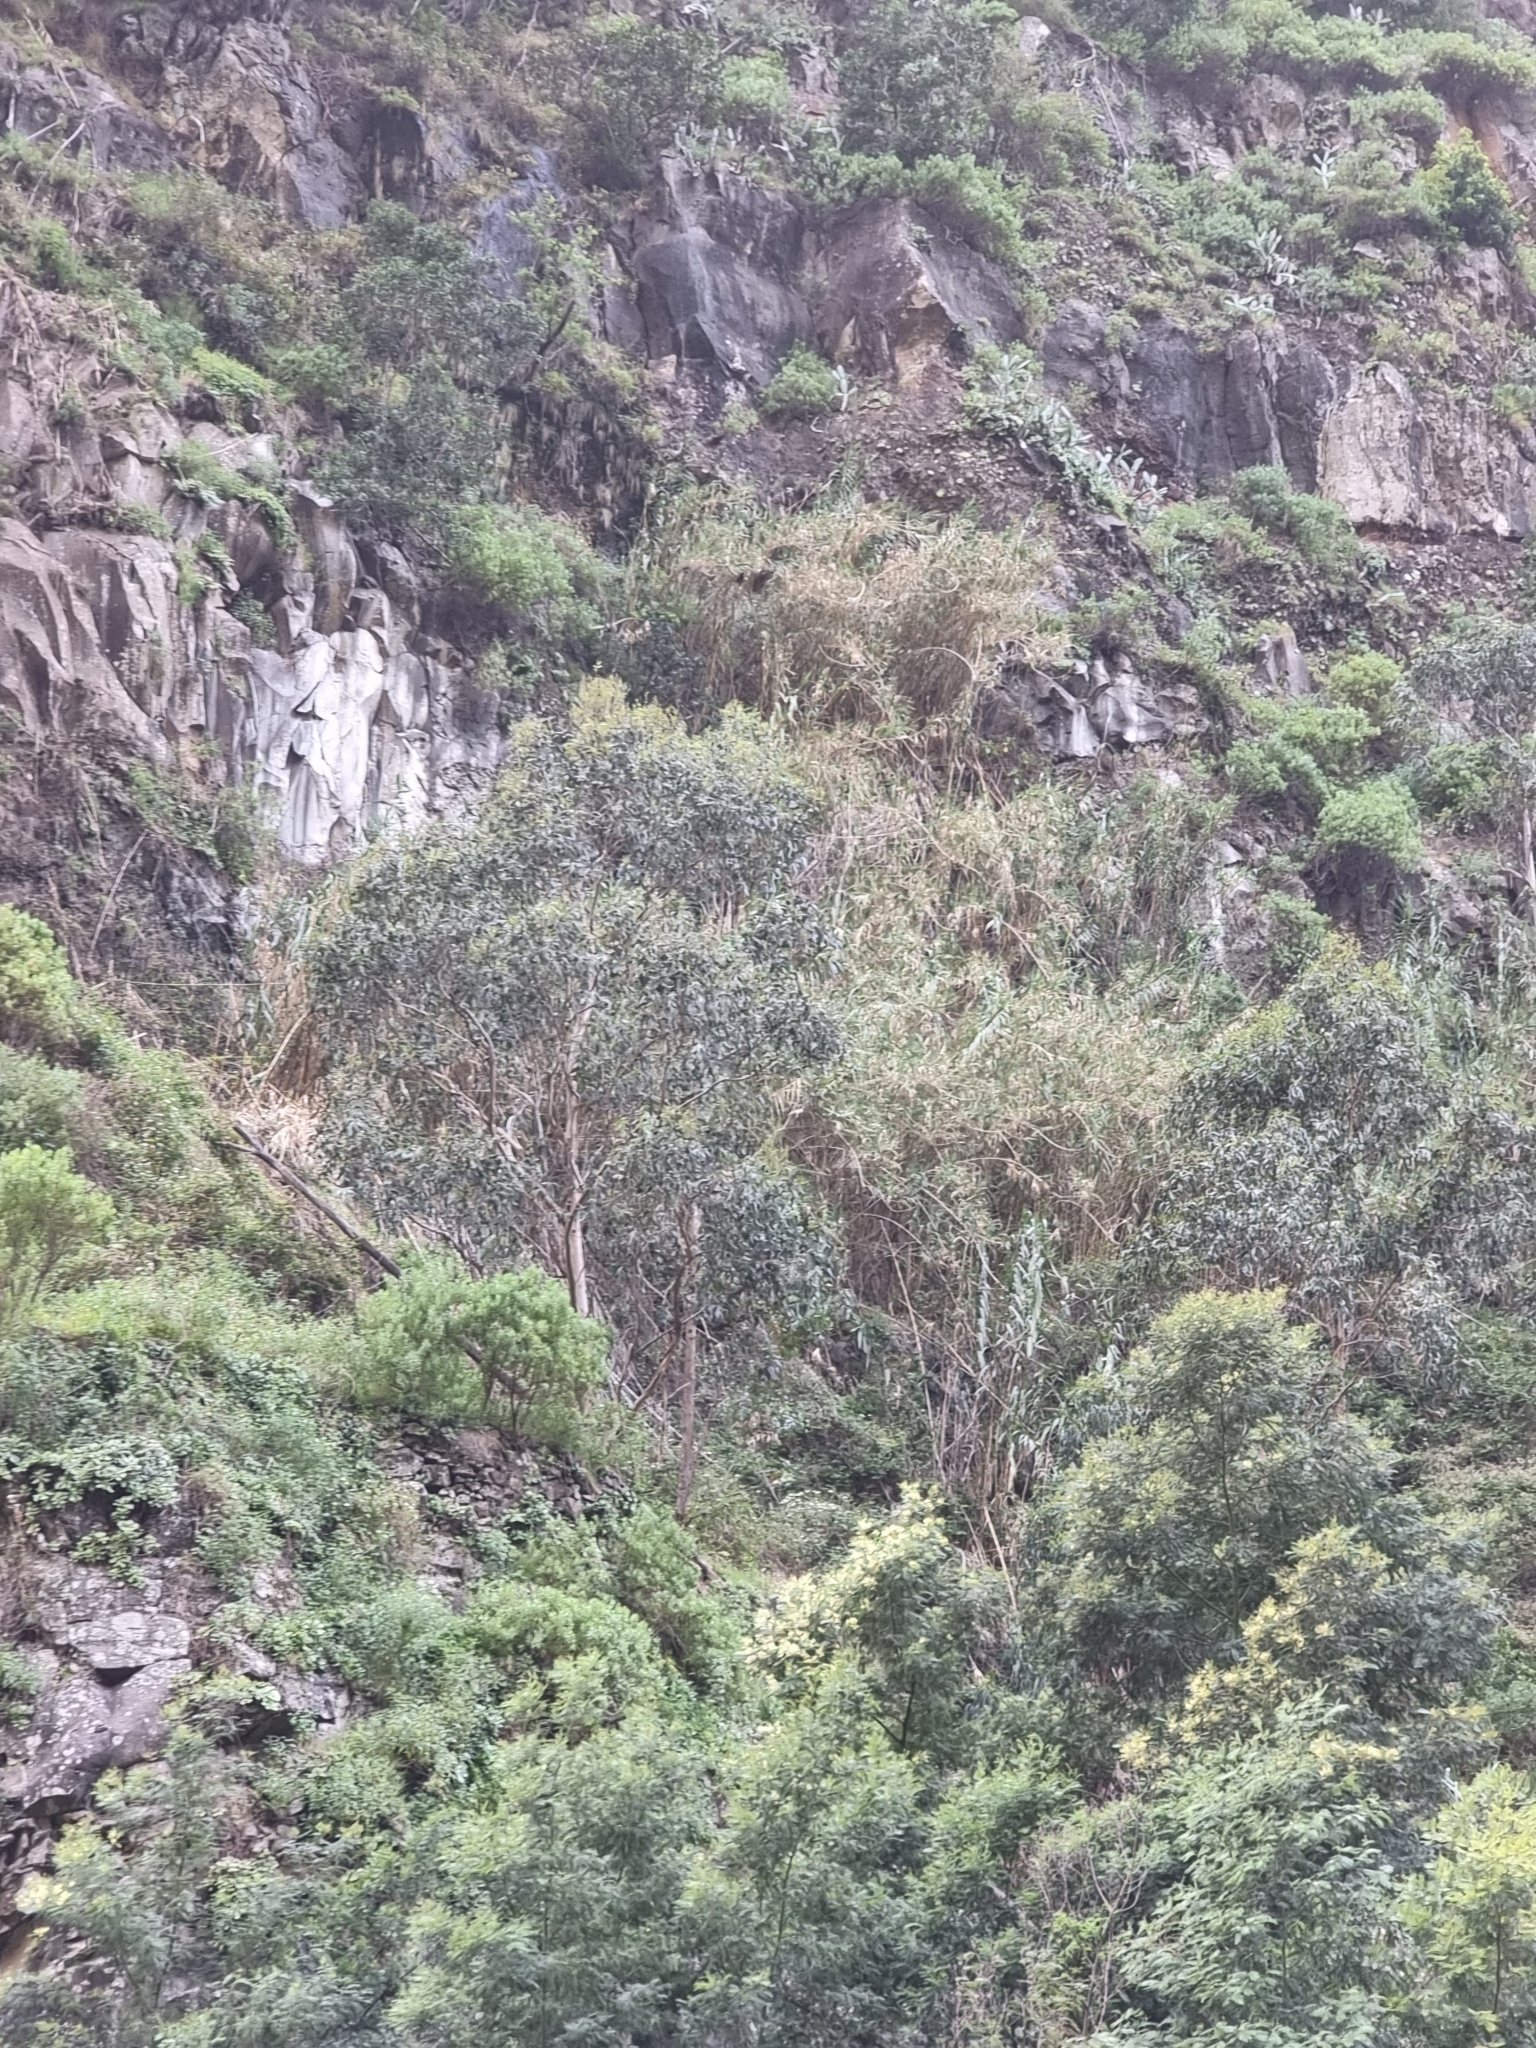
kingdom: Plantae
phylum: Tracheophyta
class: Magnoliopsida
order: Myrtales
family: Myrtaceae
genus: Eucalyptus
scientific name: Eucalyptus globulus
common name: Southern blue-gum
